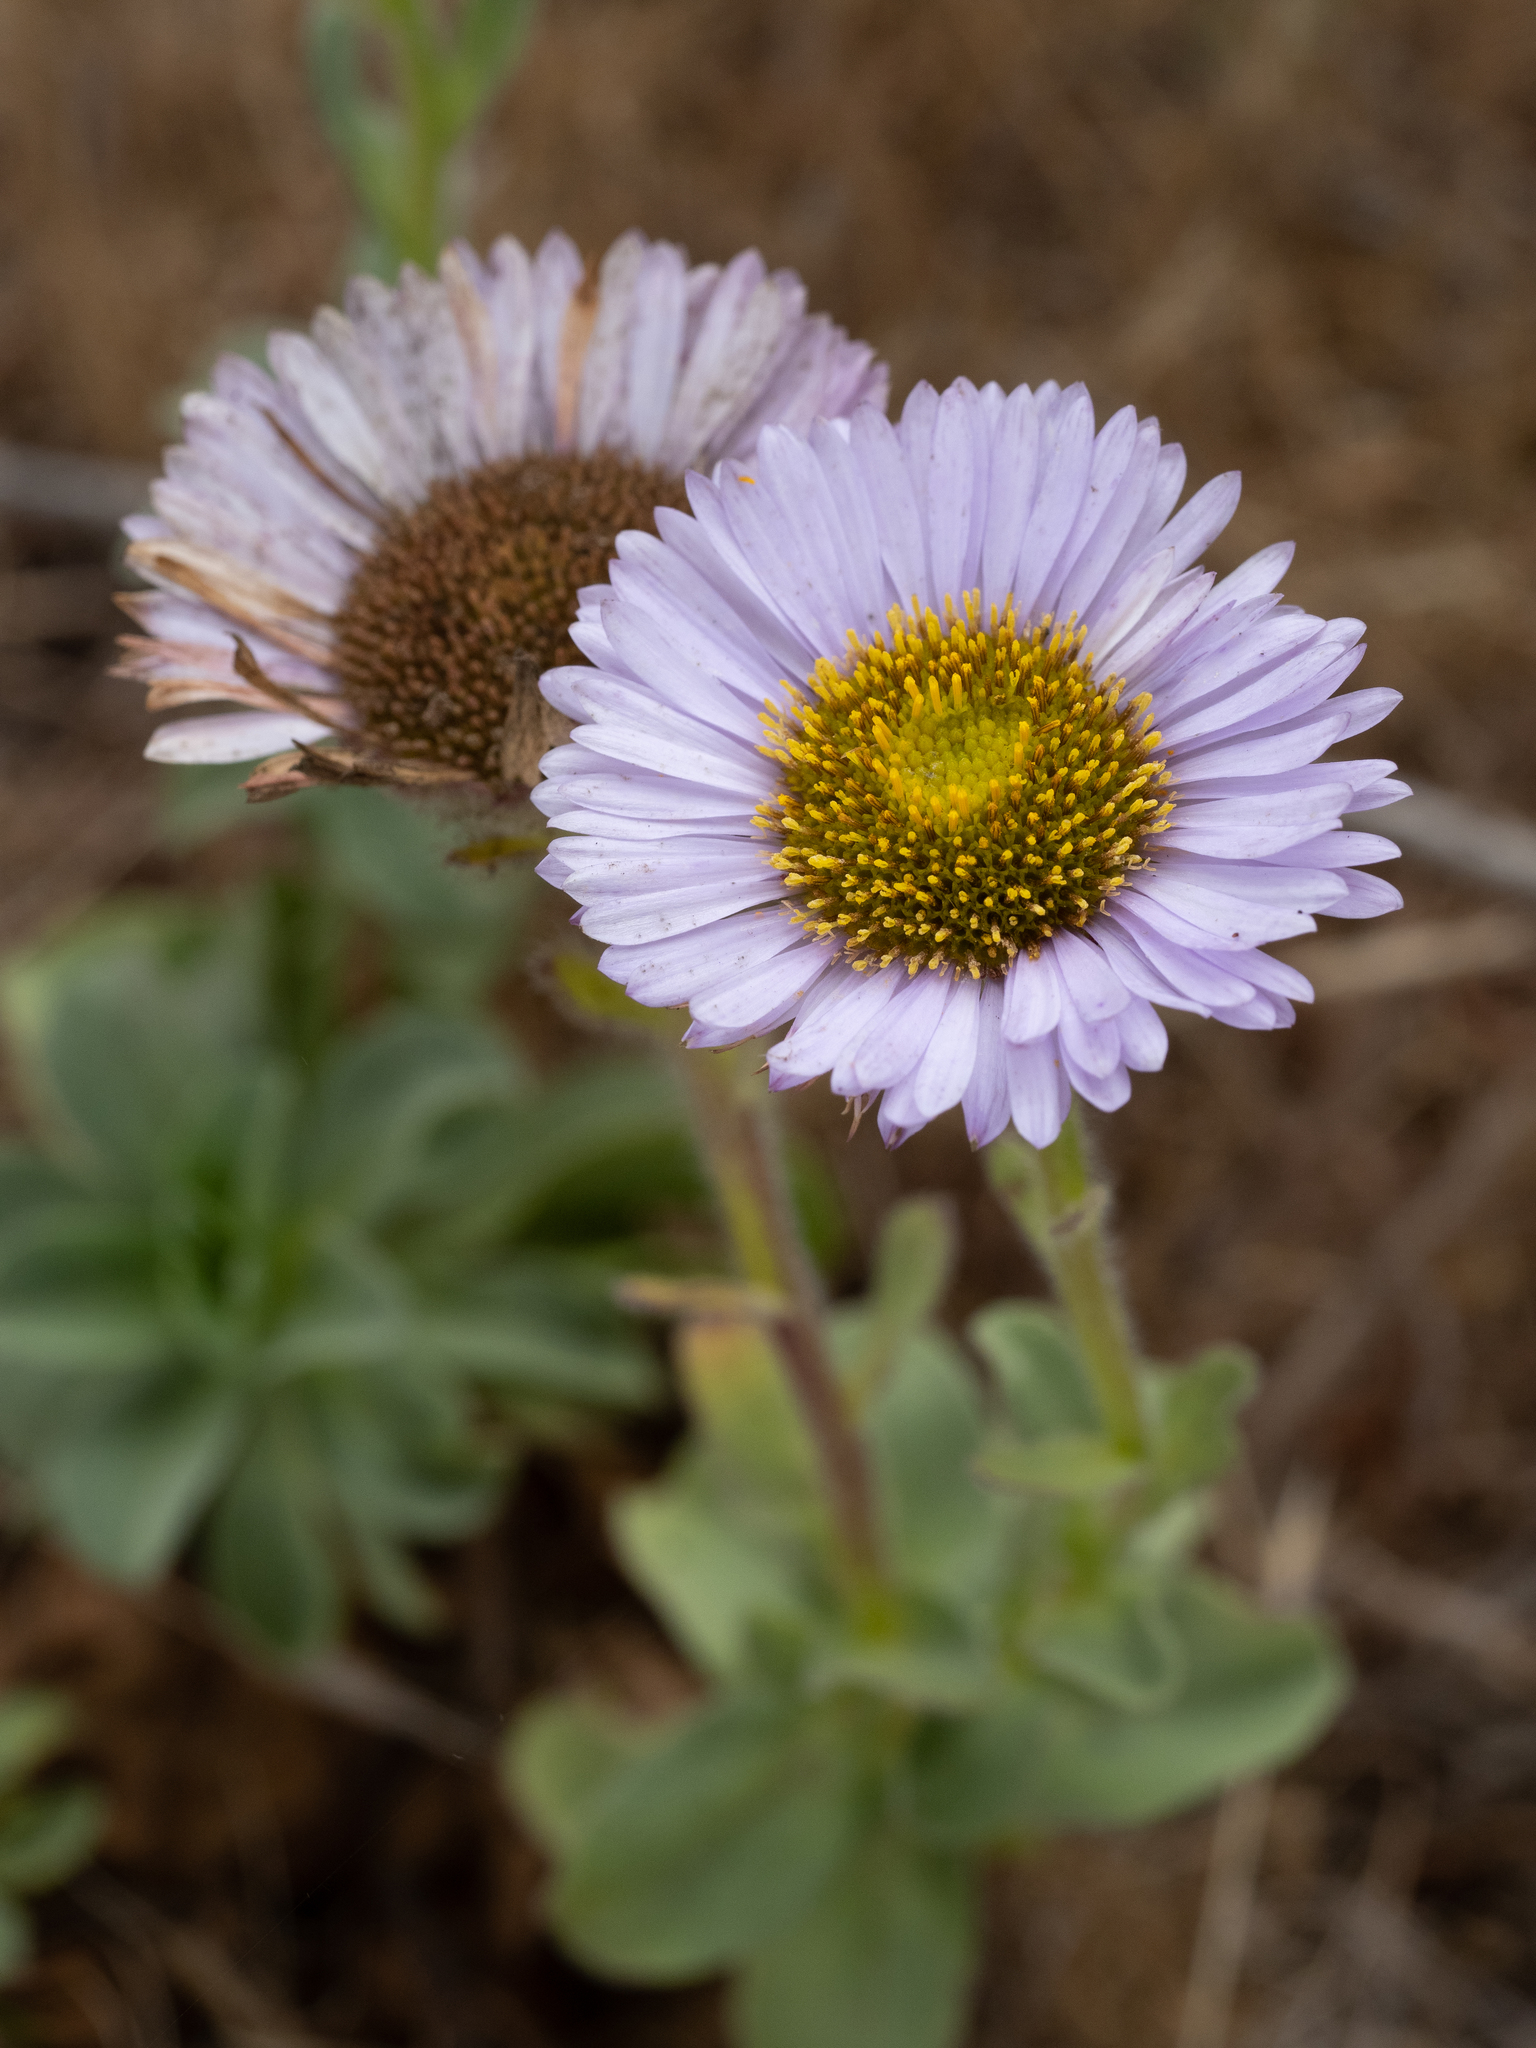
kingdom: Plantae
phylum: Tracheophyta
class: Magnoliopsida
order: Asterales
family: Asteraceae
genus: Erigeron
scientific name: Erigeron glaucus
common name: Seaside daisy
